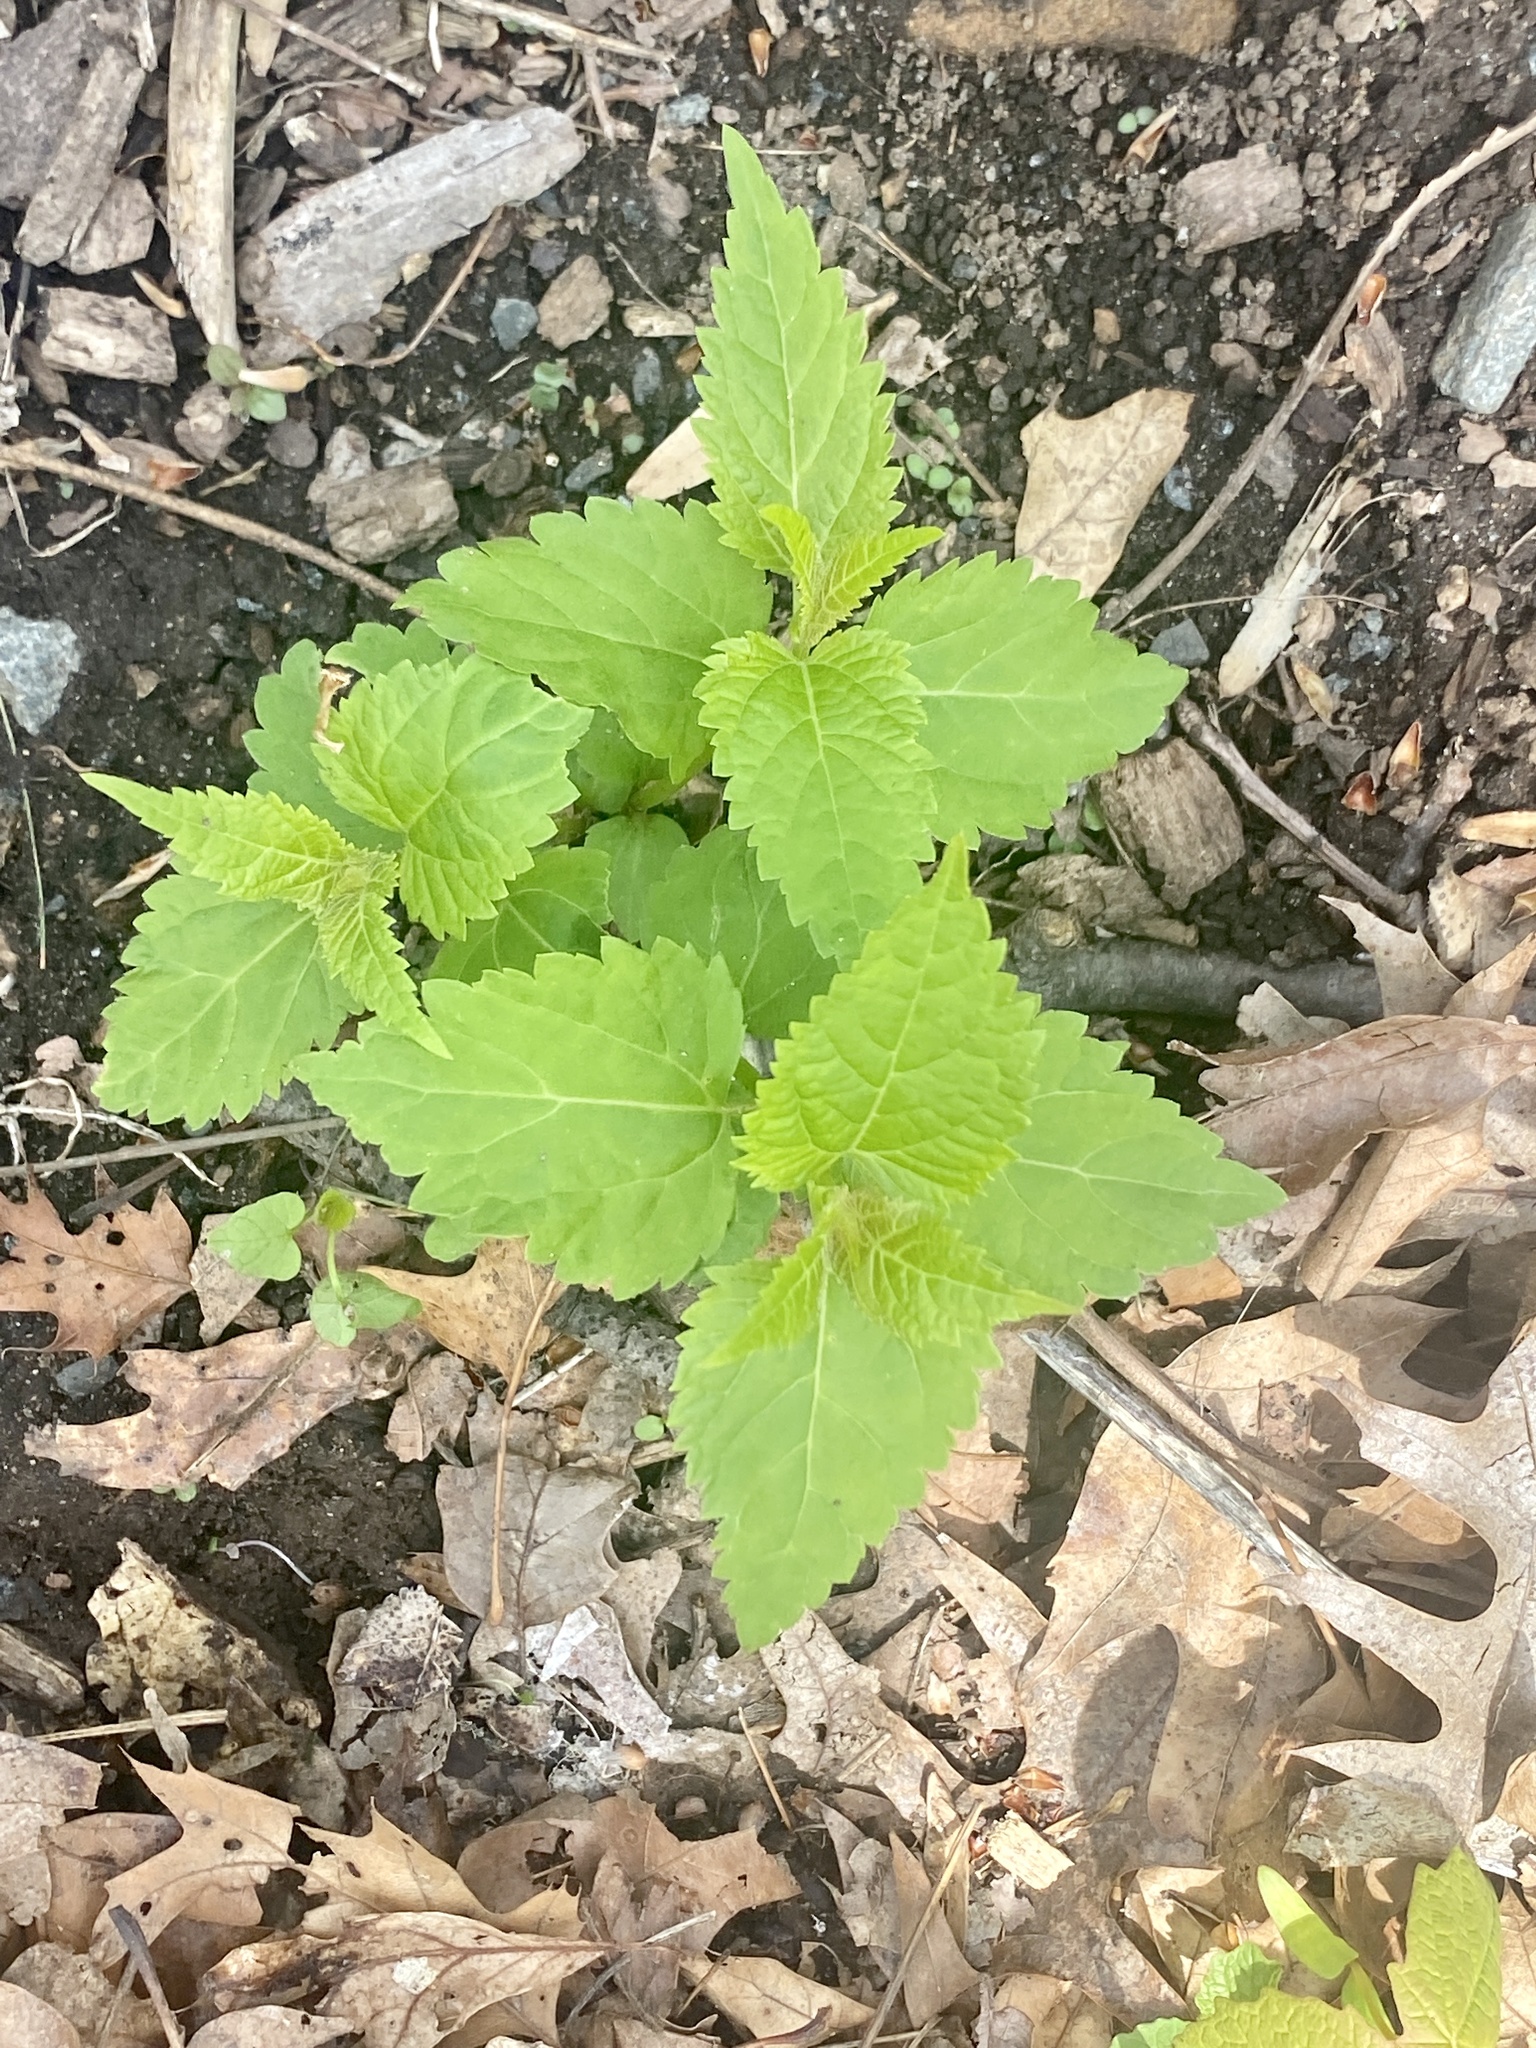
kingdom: Plantae
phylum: Tracheophyta
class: Magnoliopsida
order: Asterales
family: Asteraceae
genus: Ageratina
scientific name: Ageratina altissima
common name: White snakeroot
